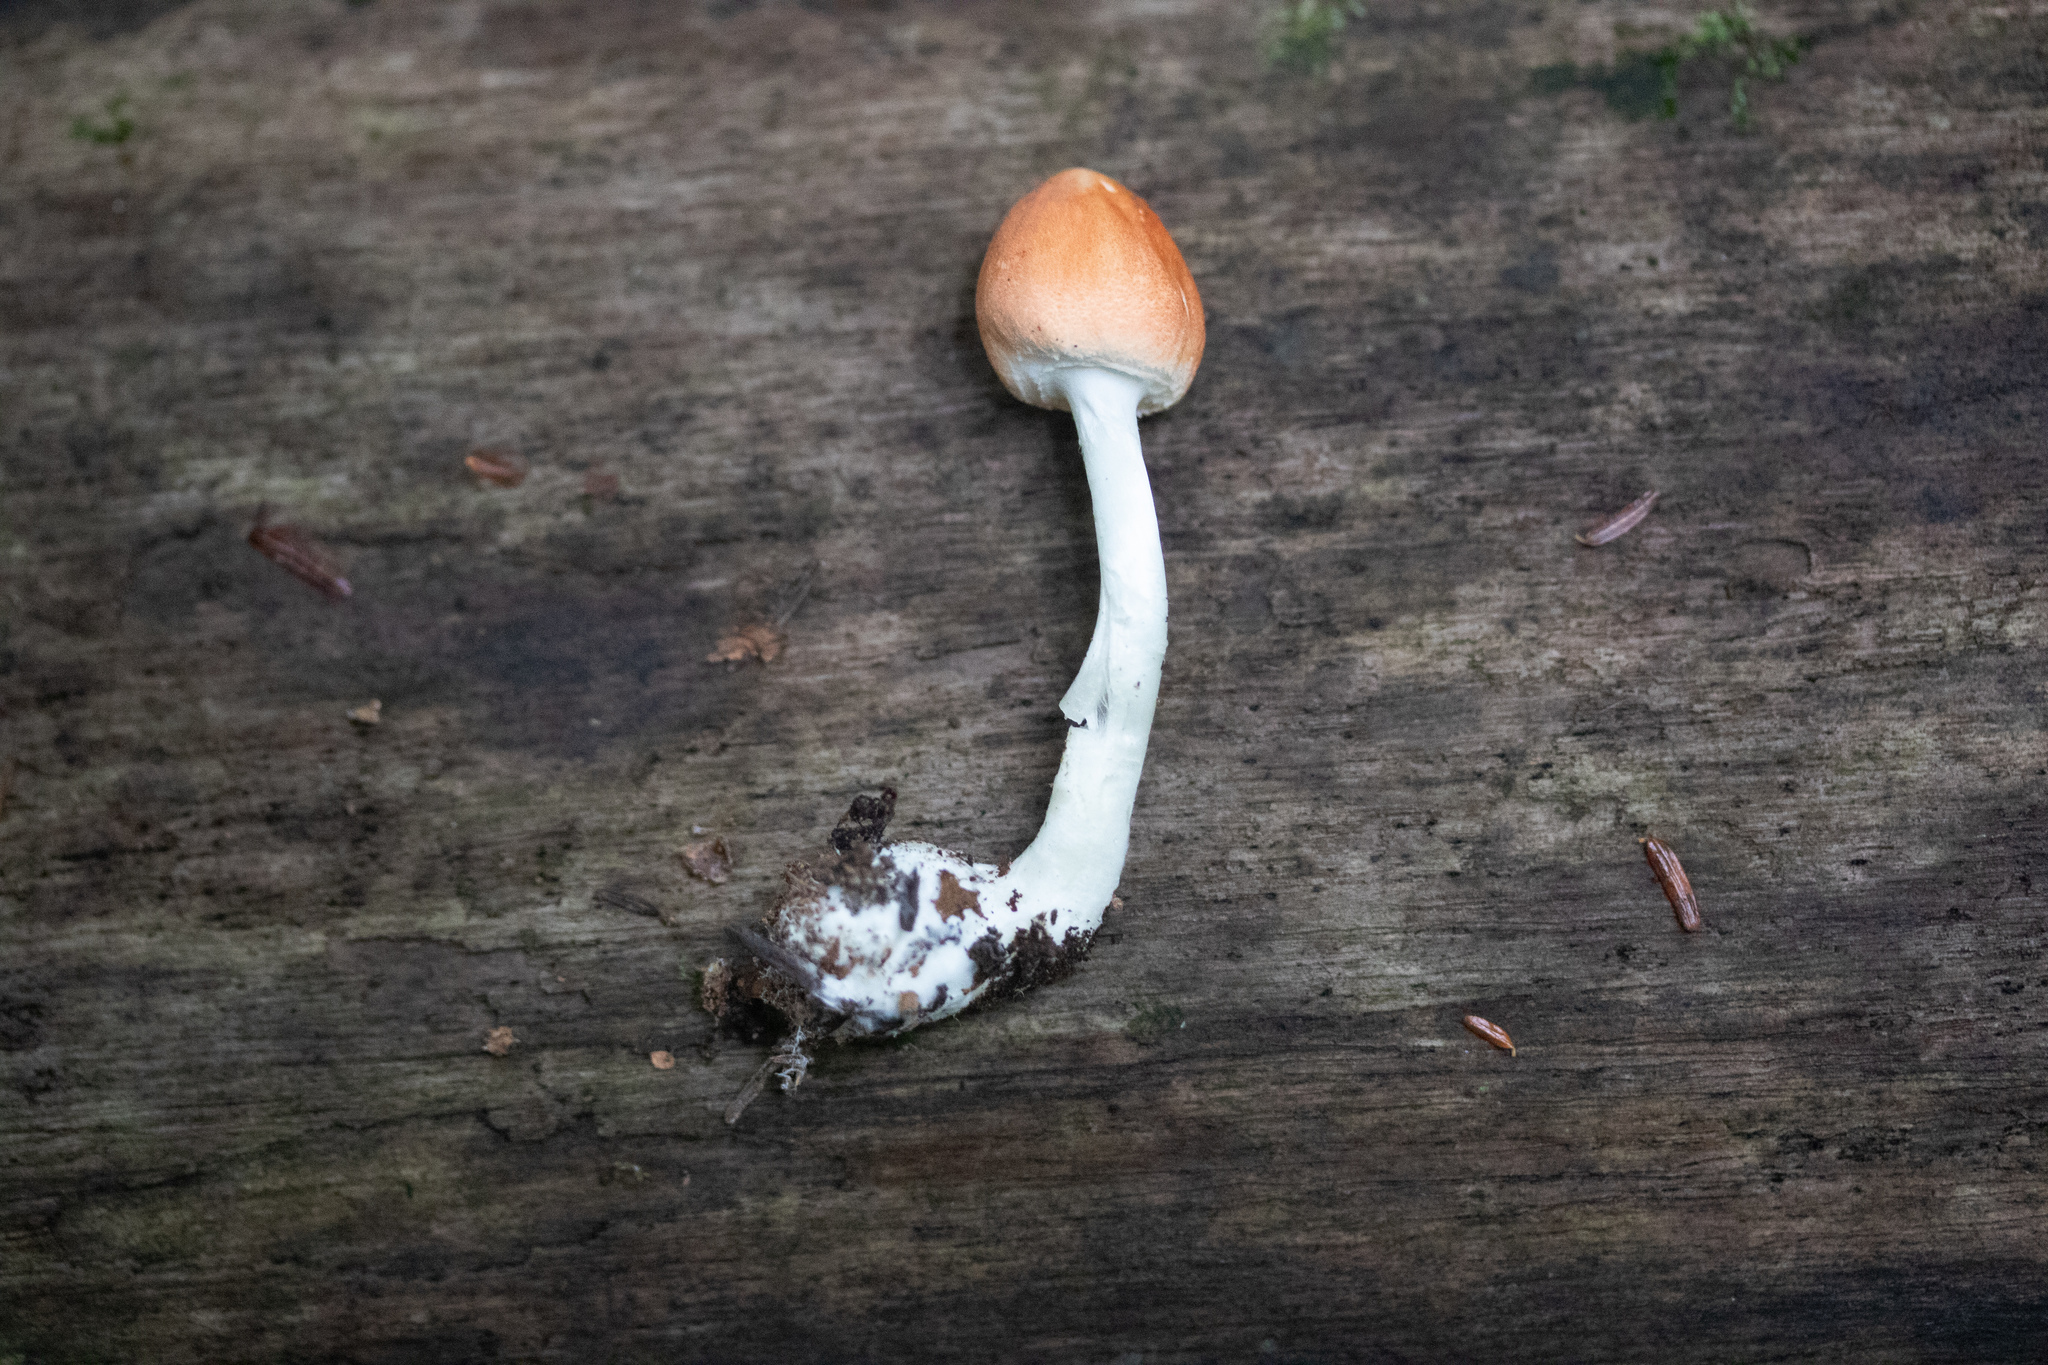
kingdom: Fungi
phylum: Basidiomycota
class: Agaricomycetes
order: Agaricales
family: Agaricaceae
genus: Leucoagaricus
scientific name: Leucoagaricus rubrotinctus
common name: Ruby dapperling
